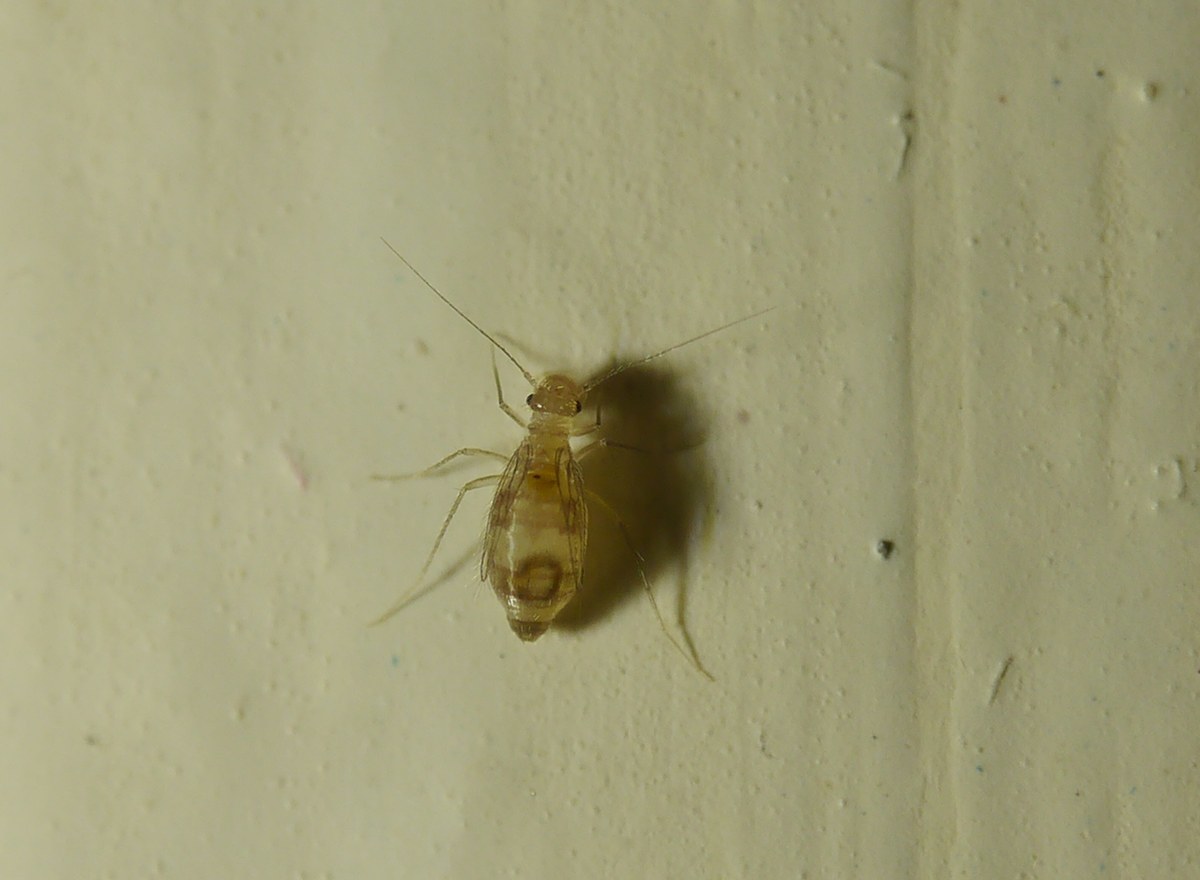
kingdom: Animalia
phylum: Arthropoda
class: Insecta
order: Psocodea
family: Psyllipsocidae
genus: Dorypteryx
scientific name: Dorypteryx domestica
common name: Cave barklouse
